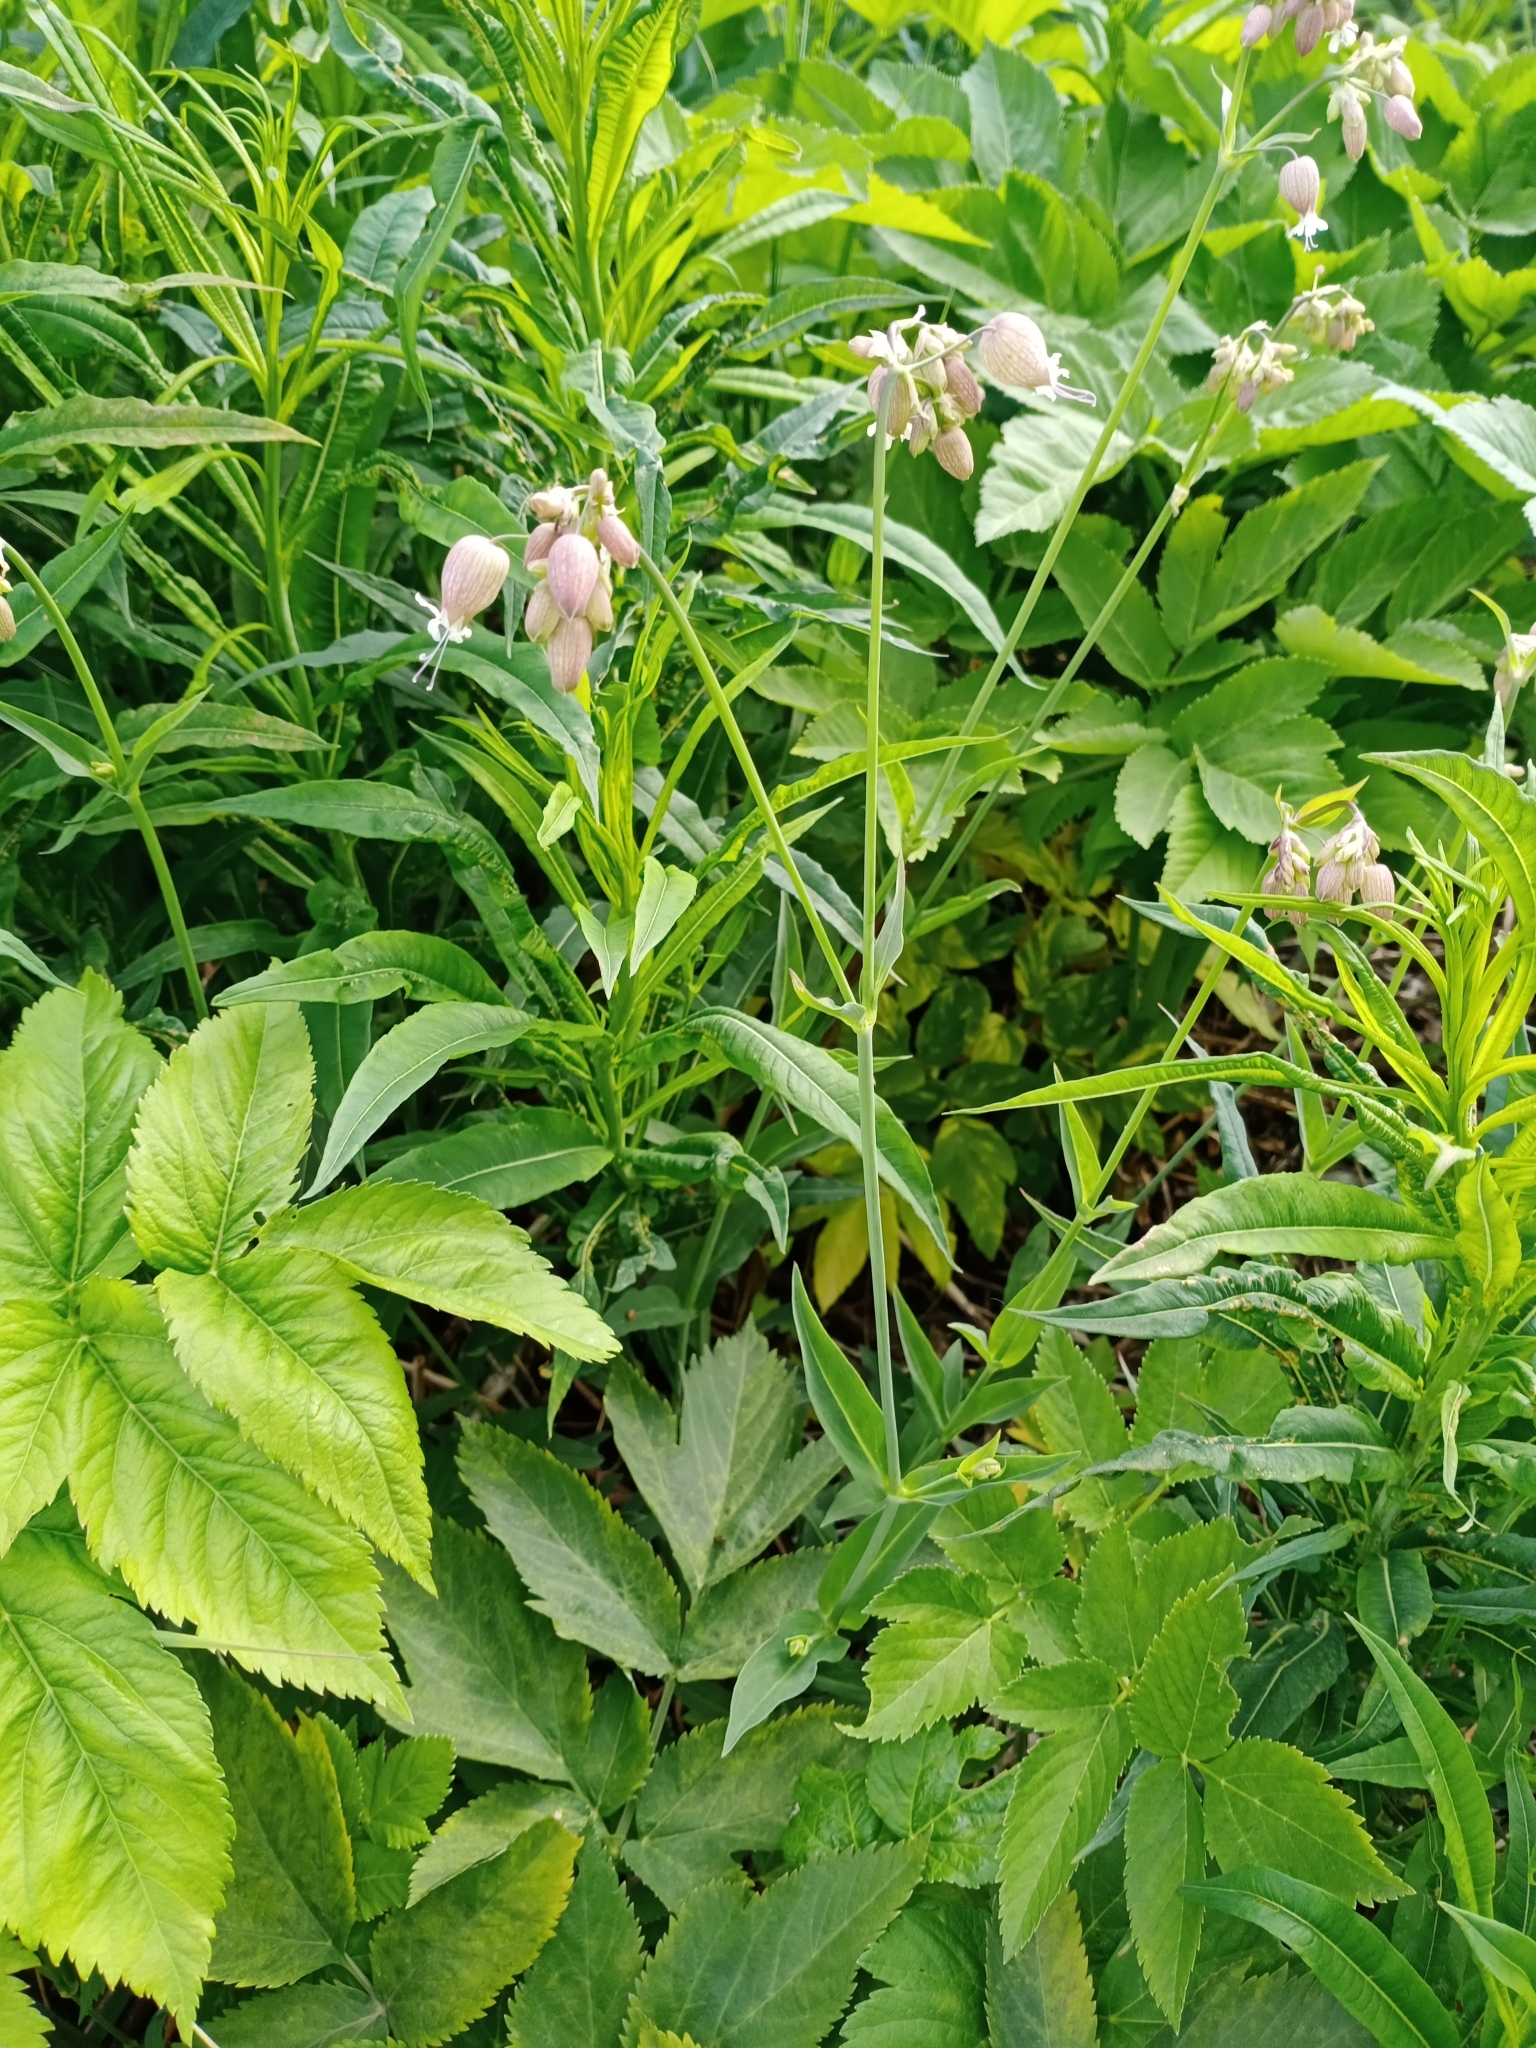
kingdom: Plantae
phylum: Tracheophyta
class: Magnoliopsida
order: Caryophyllales
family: Caryophyllaceae
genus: Silene
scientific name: Silene vulgaris
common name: Bladder campion
